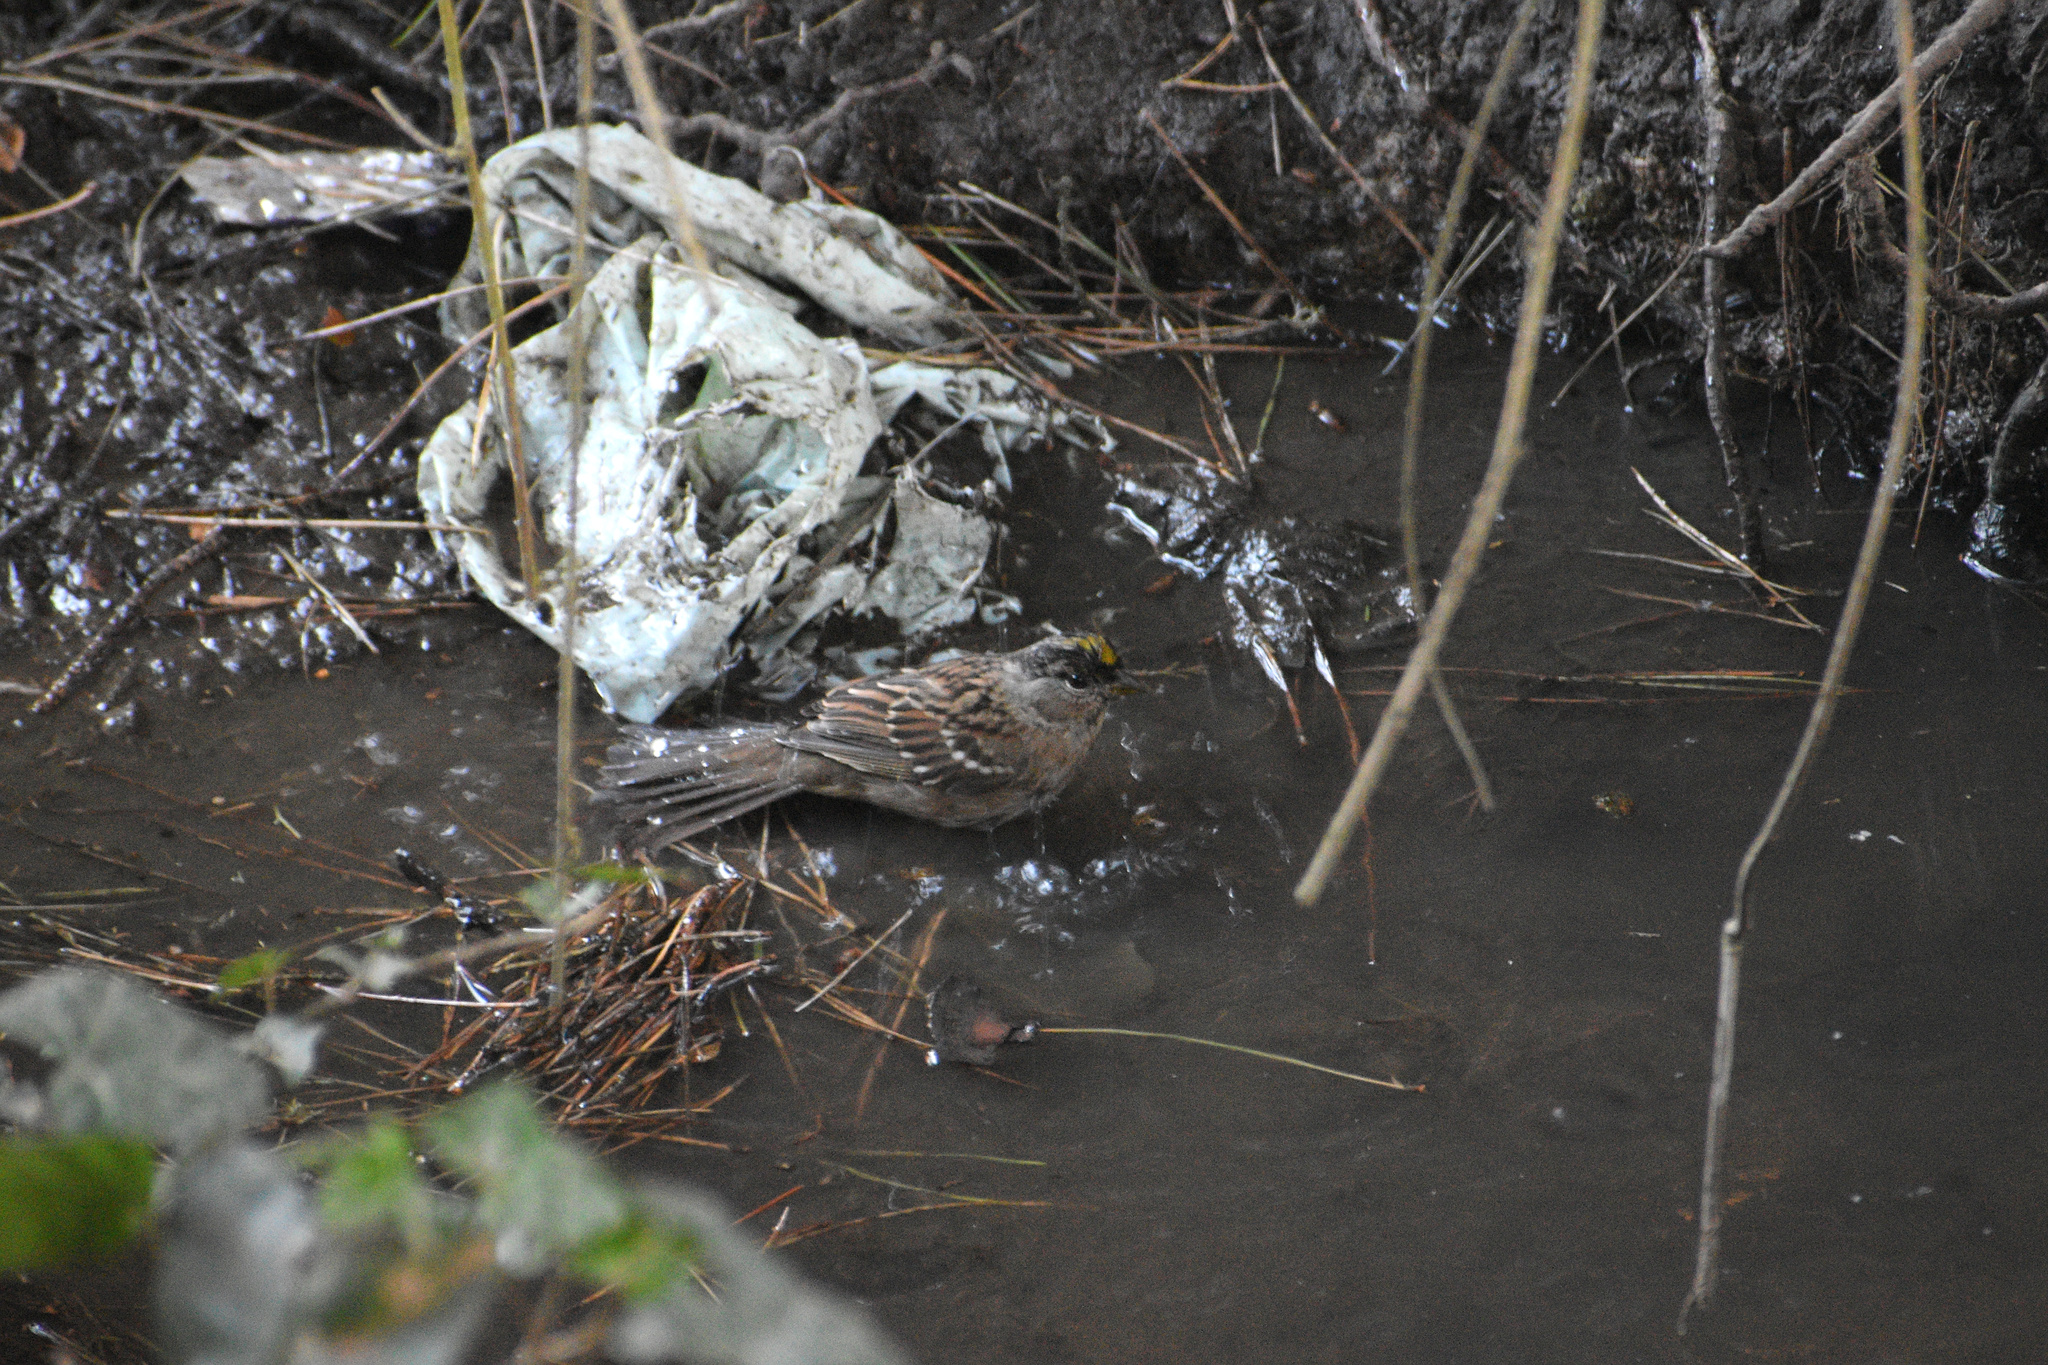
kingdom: Animalia
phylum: Chordata
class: Aves
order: Passeriformes
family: Passerellidae
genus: Zonotrichia
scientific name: Zonotrichia atricapilla
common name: Golden-crowned sparrow
